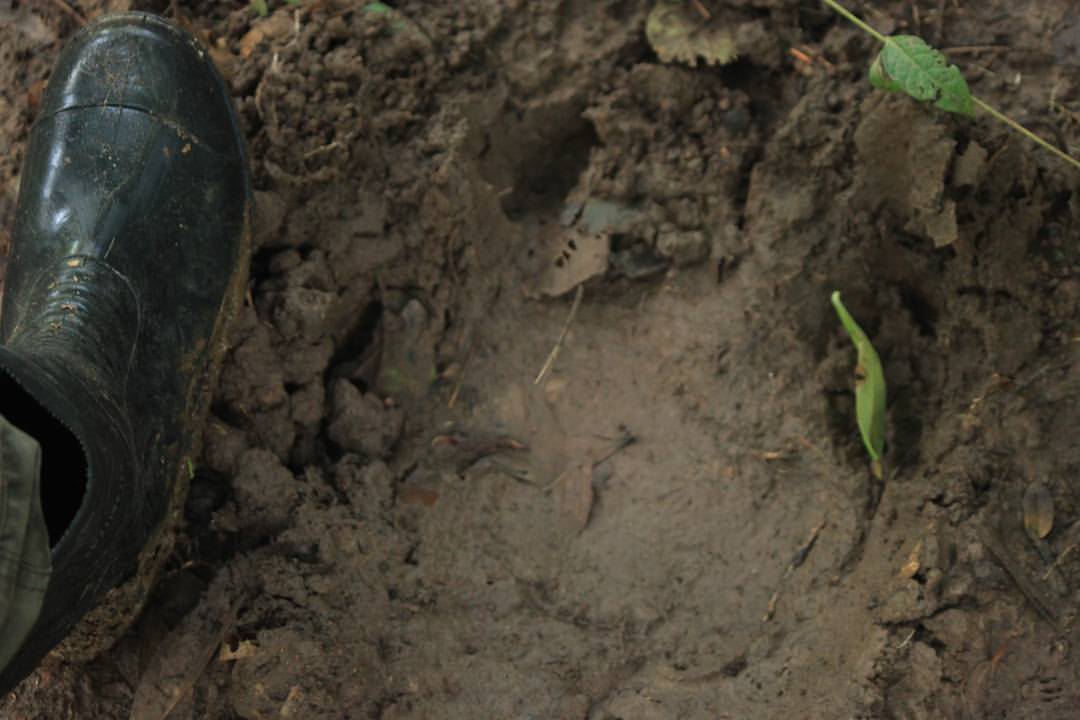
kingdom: Animalia
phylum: Chordata
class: Mammalia
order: Perissodactyla
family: Rhinocerotidae
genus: Rhinoceros
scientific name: Rhinoceros sondaicus
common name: Javan rhinoceros
